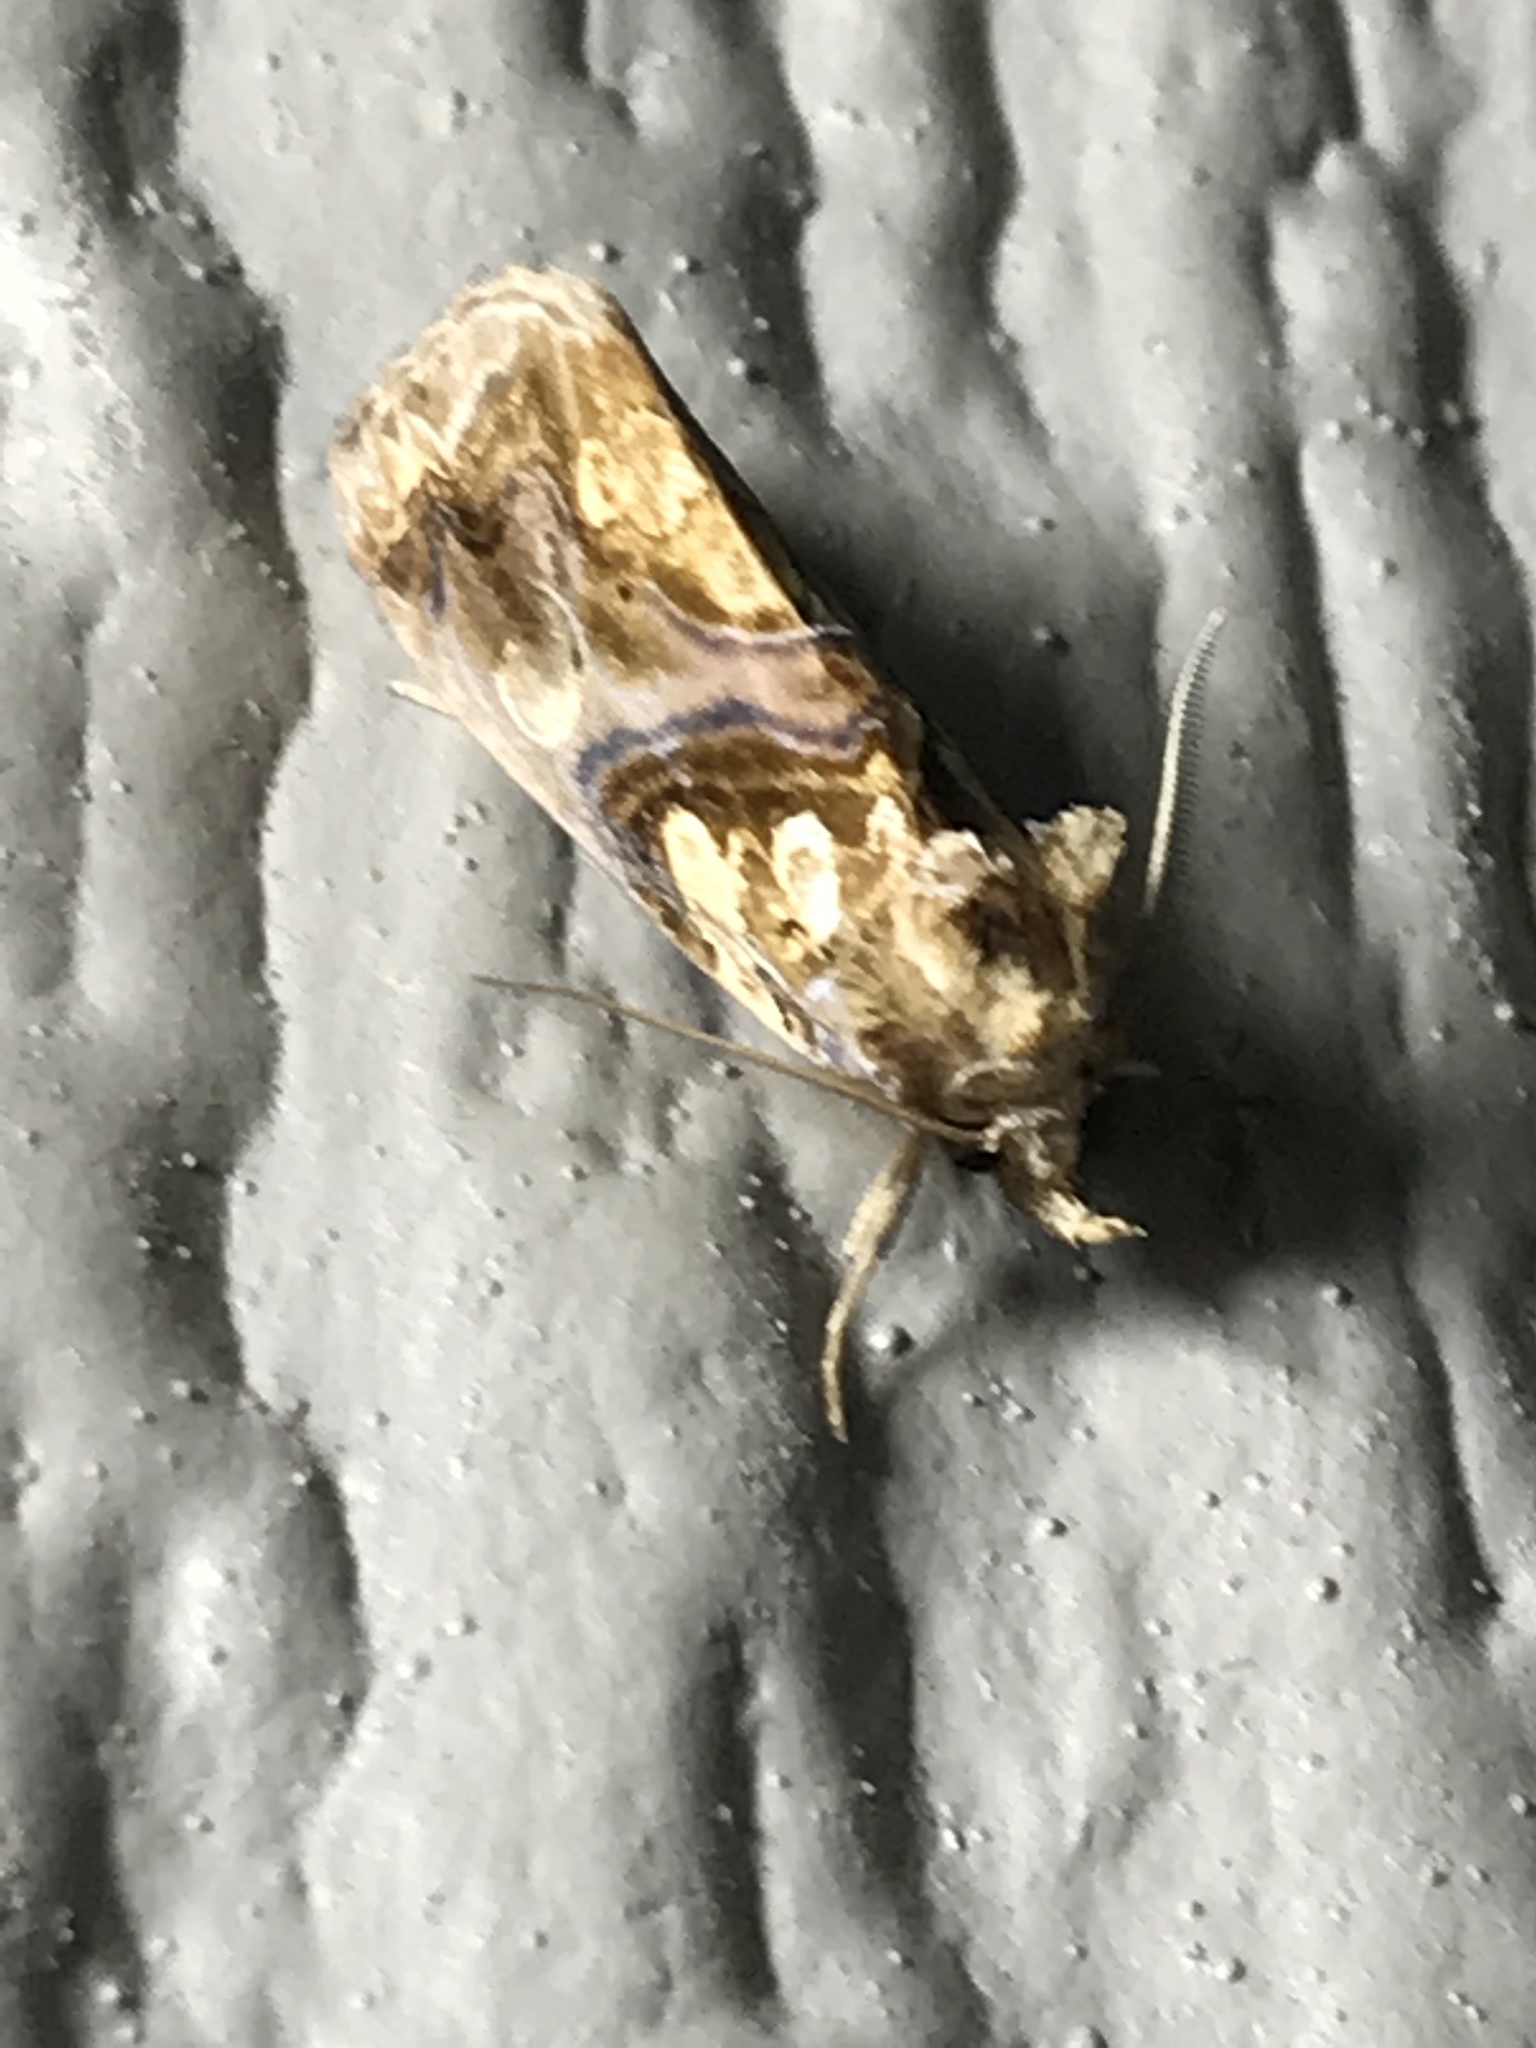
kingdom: Animalia
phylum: Arthropoda
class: Insecta
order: Lepidoptera
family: Erebidae
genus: Plusiodonta
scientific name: Plusiodonta compressipalpis
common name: Moonseed moth
